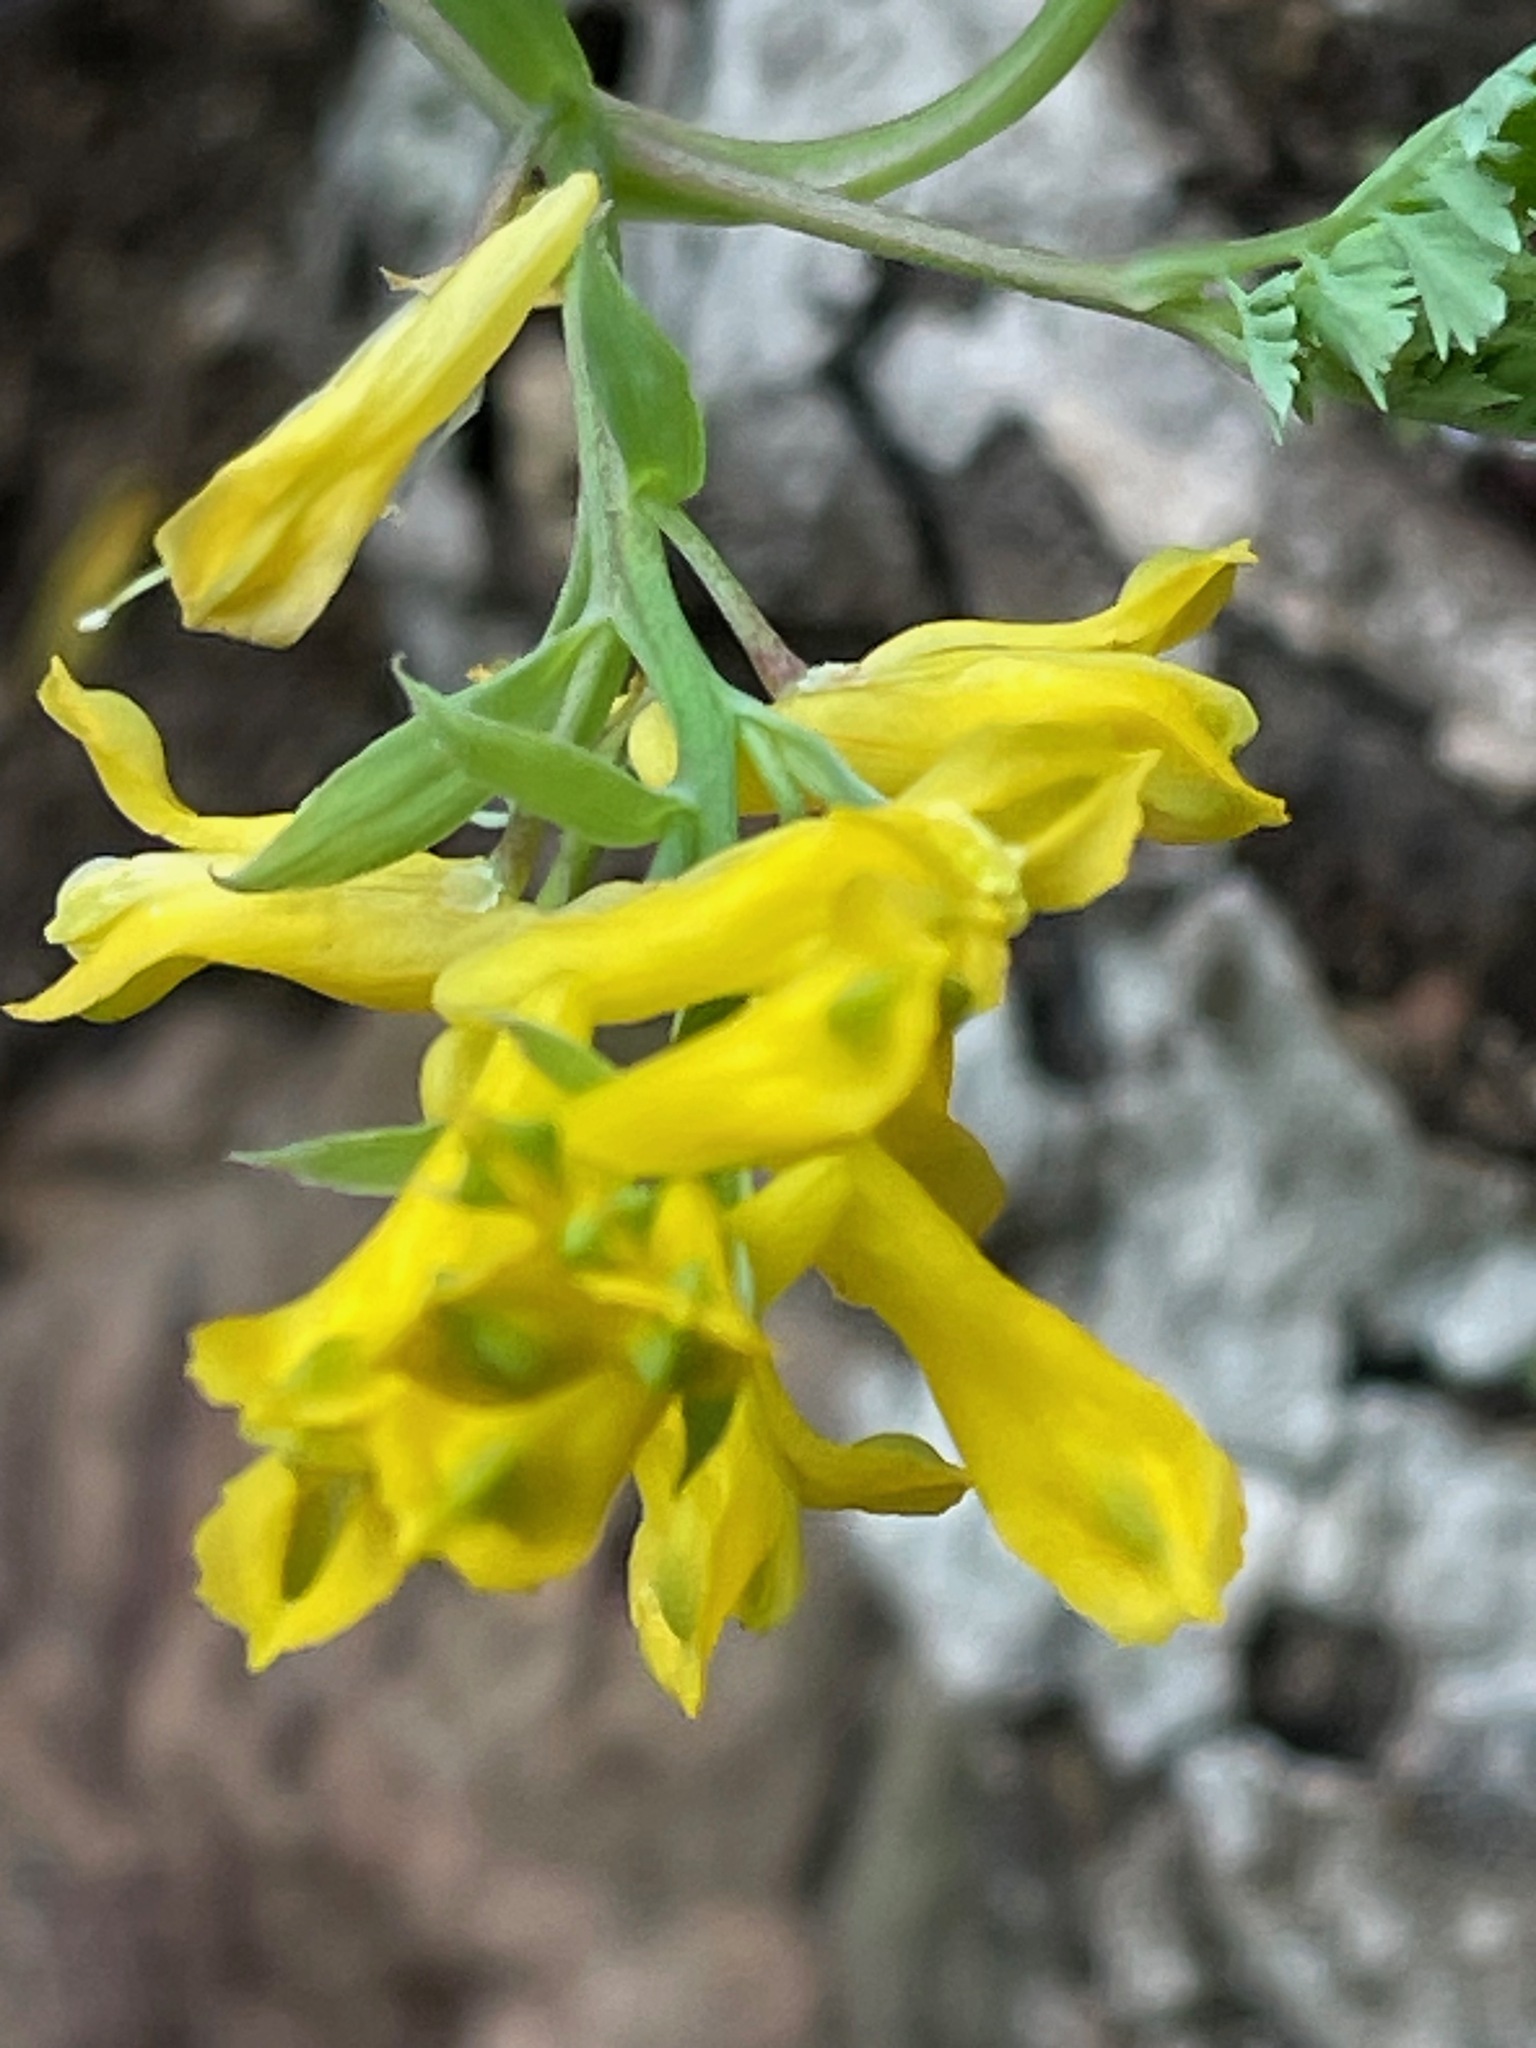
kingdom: Plantae
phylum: Tracheophyta
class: Magnoliopsida
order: Ranunculales
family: Papaveraceae
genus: Corydalis
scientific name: Corydalis aurea
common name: Golden corydalis
